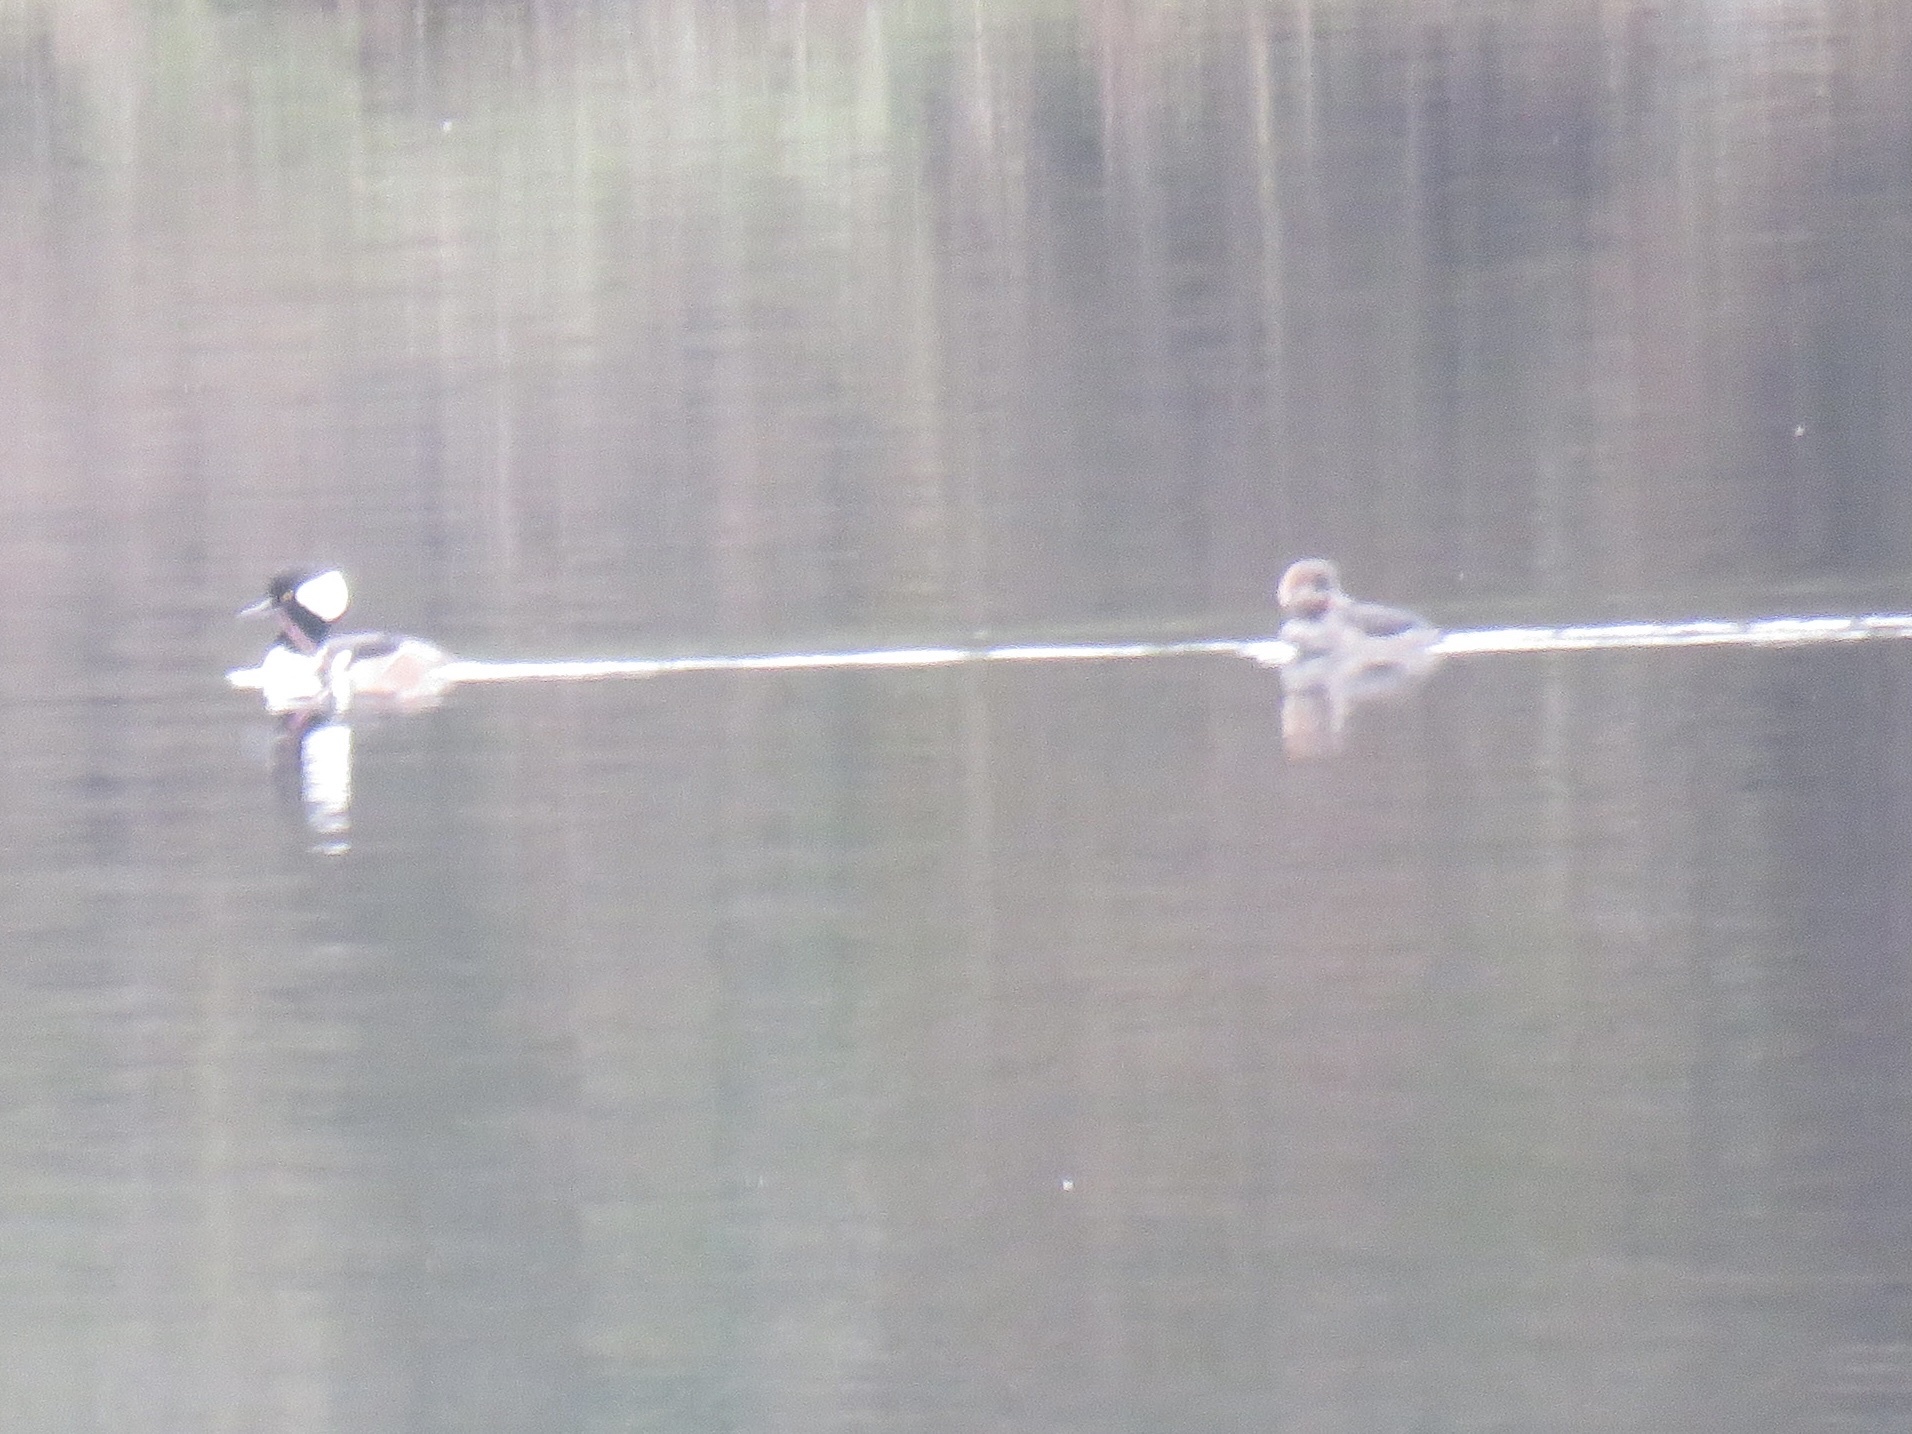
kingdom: Animalia
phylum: Chordata
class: Aves
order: Anseriformes
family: Anatidae
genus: Lophodytes
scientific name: Lophodytes cucullatus
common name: Hooded merganser
